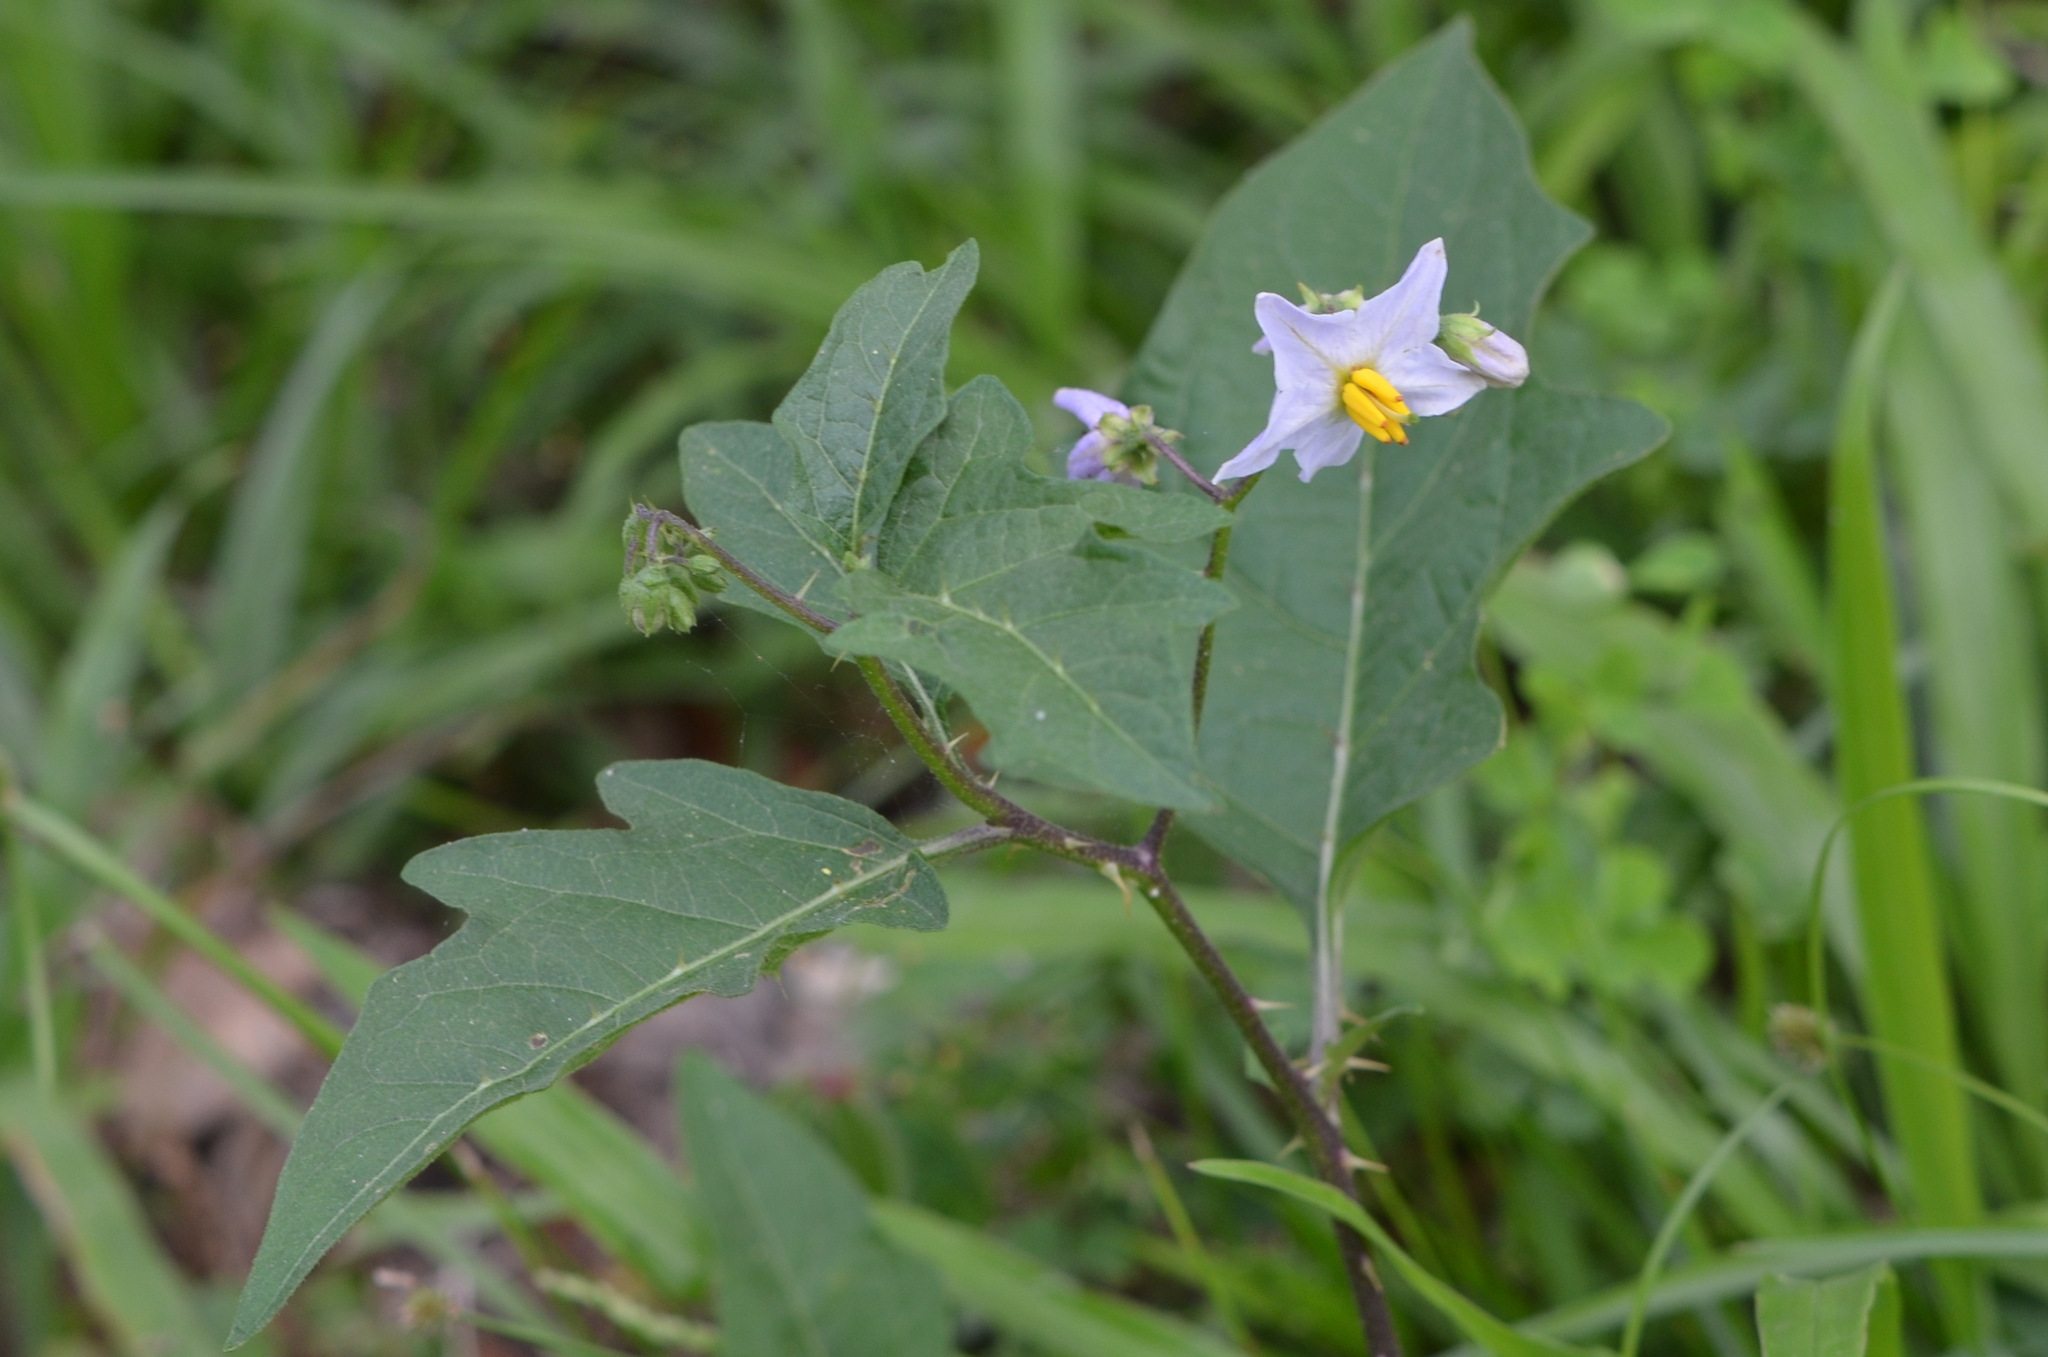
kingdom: Plantae
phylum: Tracheophyta
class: Magnoliopsida
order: Solanales
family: Solanaceae
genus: Solanum
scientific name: Solanum carolinense
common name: Horse-nettle
